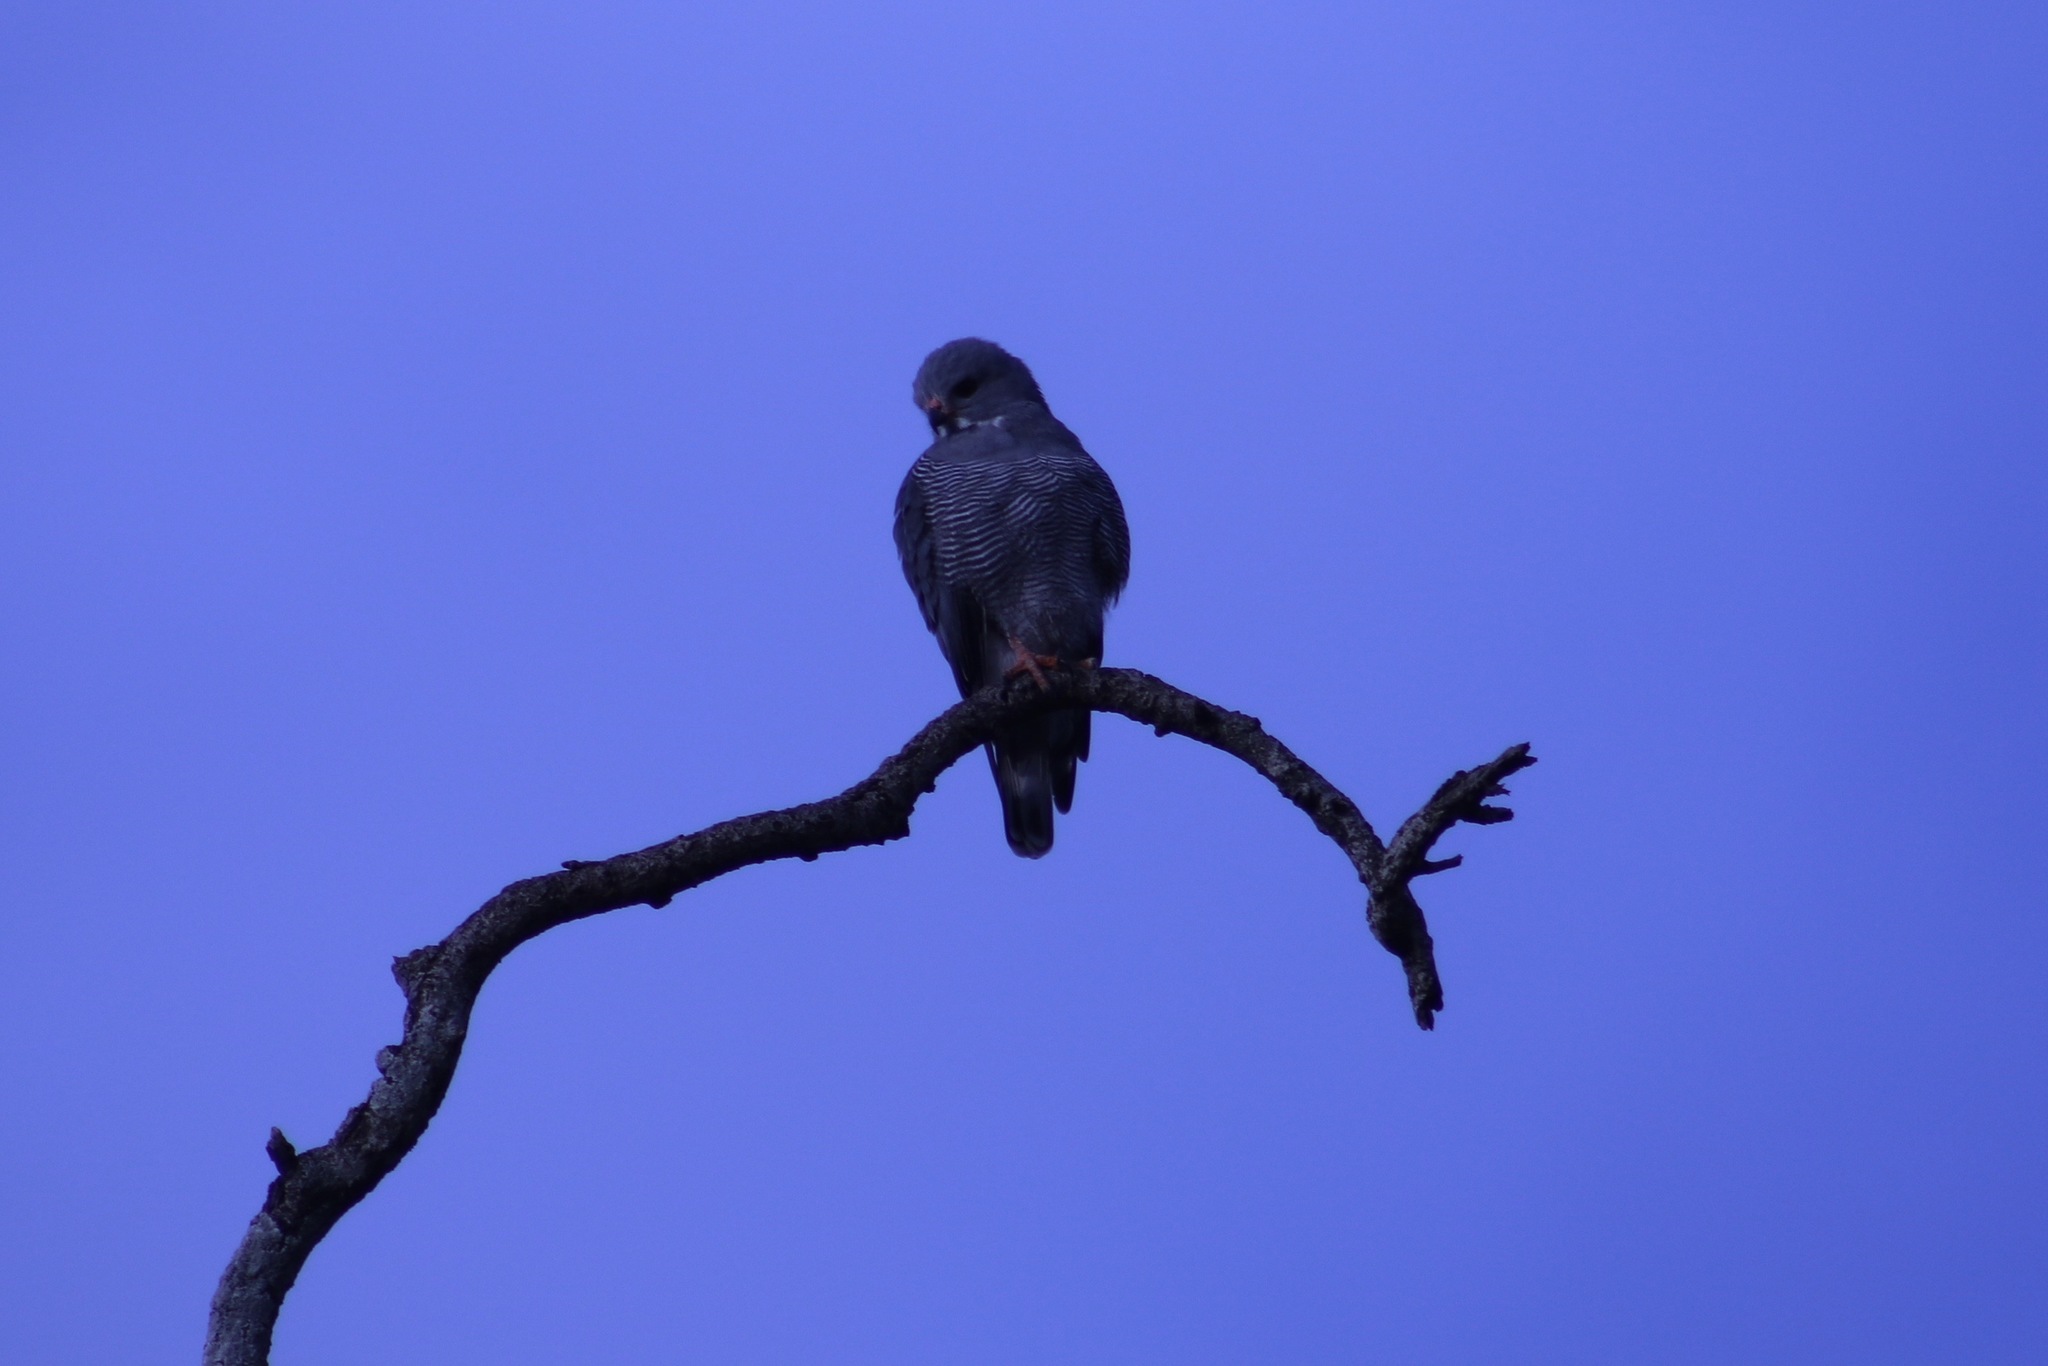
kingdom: Animalia
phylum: Chordata
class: Aves
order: Accipitriformes
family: Accipitridae
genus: Kaupifalco
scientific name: Kaupifalco monogrammicus
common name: Lizard buzzard
